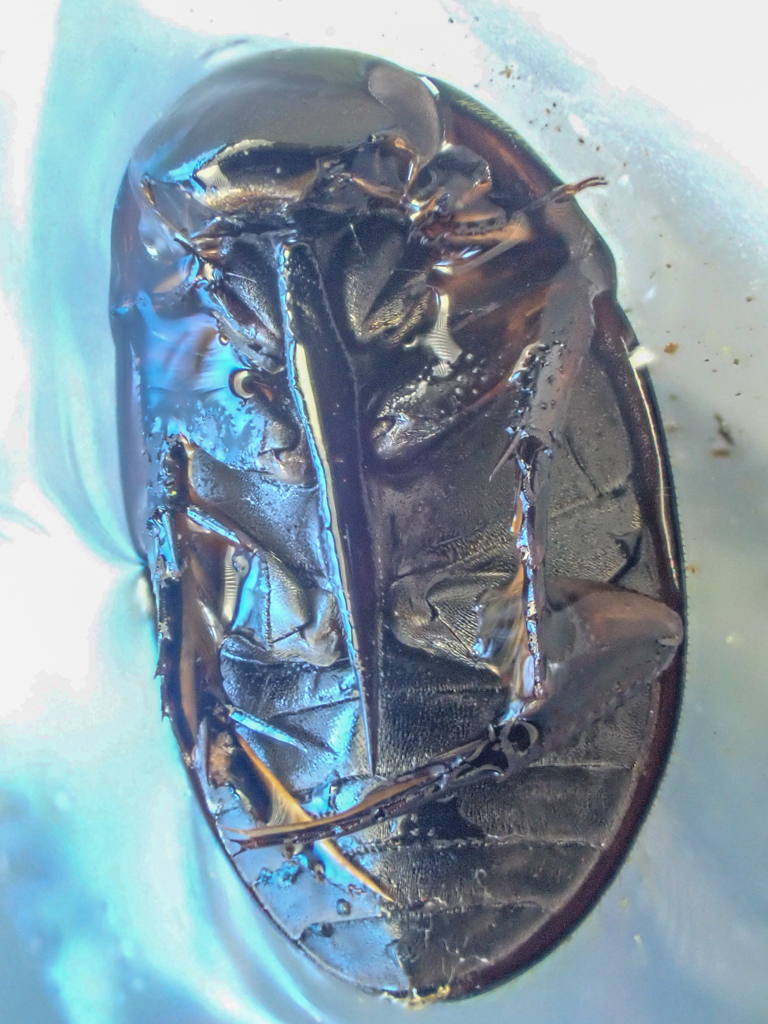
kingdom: Animalia
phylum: Arthropoda
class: Insecta
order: Coleoptera
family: Hydrophilidae
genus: Tropisternus
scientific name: Tropisternus affinis
